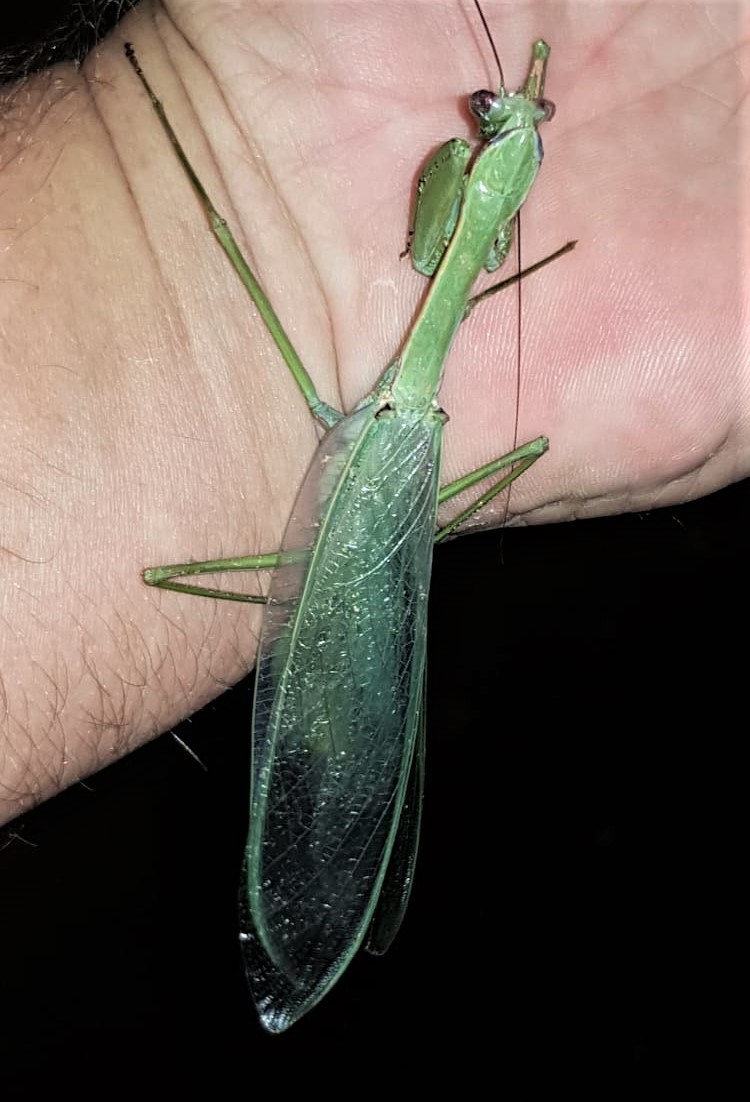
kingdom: Animalia
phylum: Arthropoda
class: Insecta
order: Mantodea
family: Photinaidae
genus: Macromantis
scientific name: Macromantis hyalina
